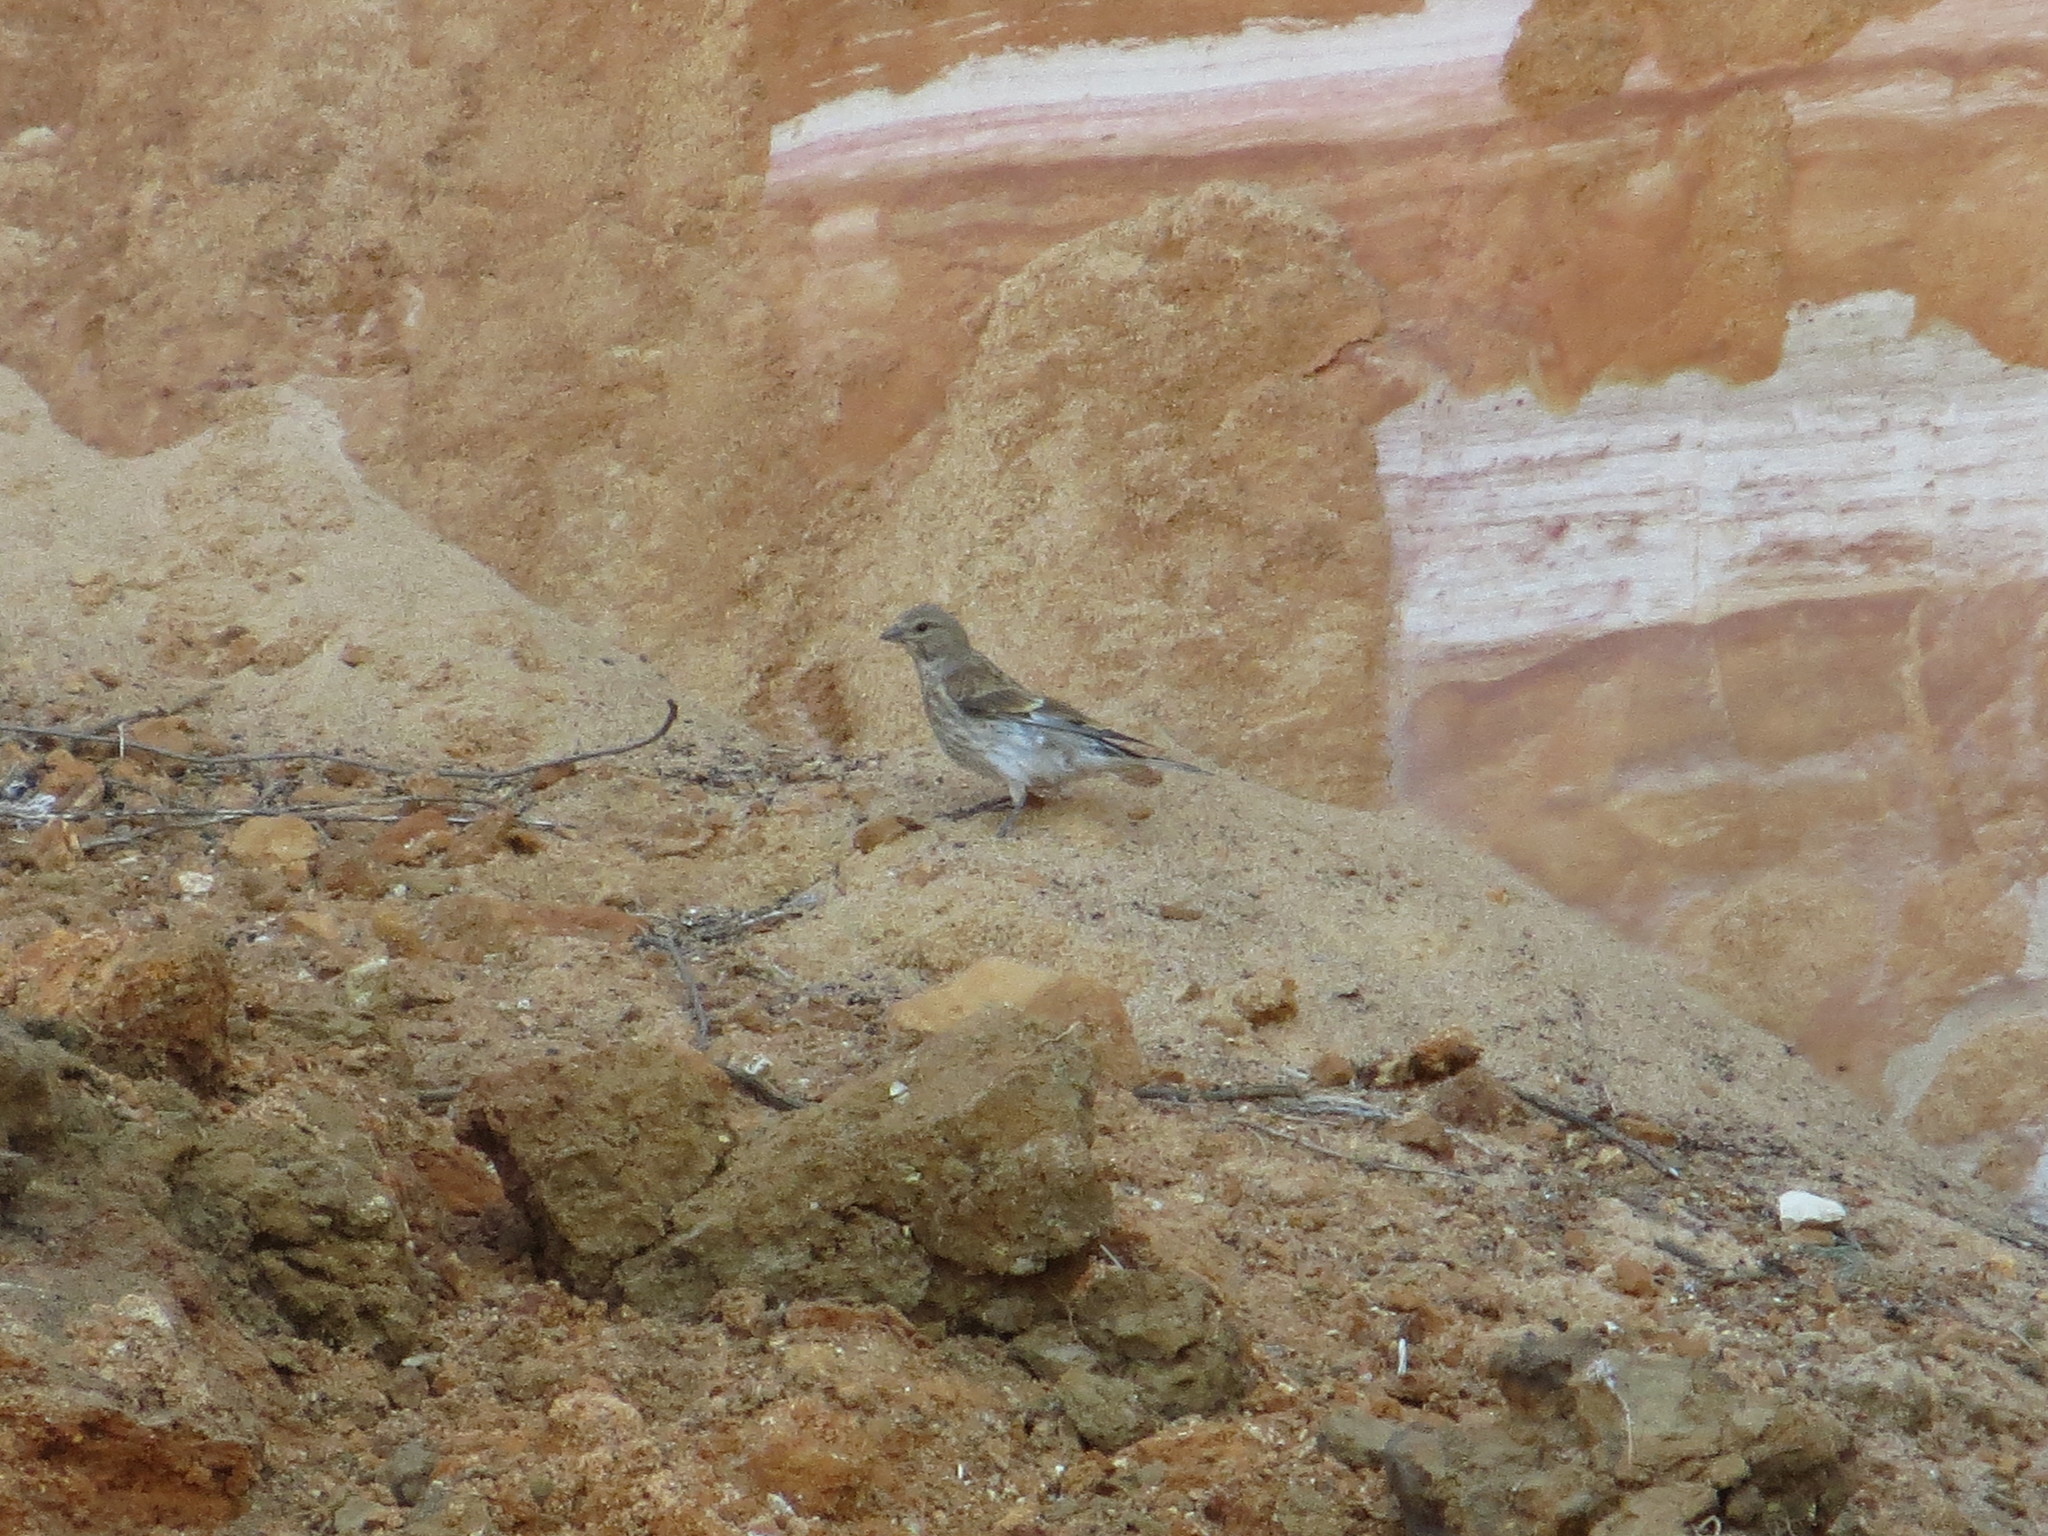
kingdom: Animalia
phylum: Chordata
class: Aves
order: Passeriformes
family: Fringillidae
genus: Linaria
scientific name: Linaria cannabina
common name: Common linnet
